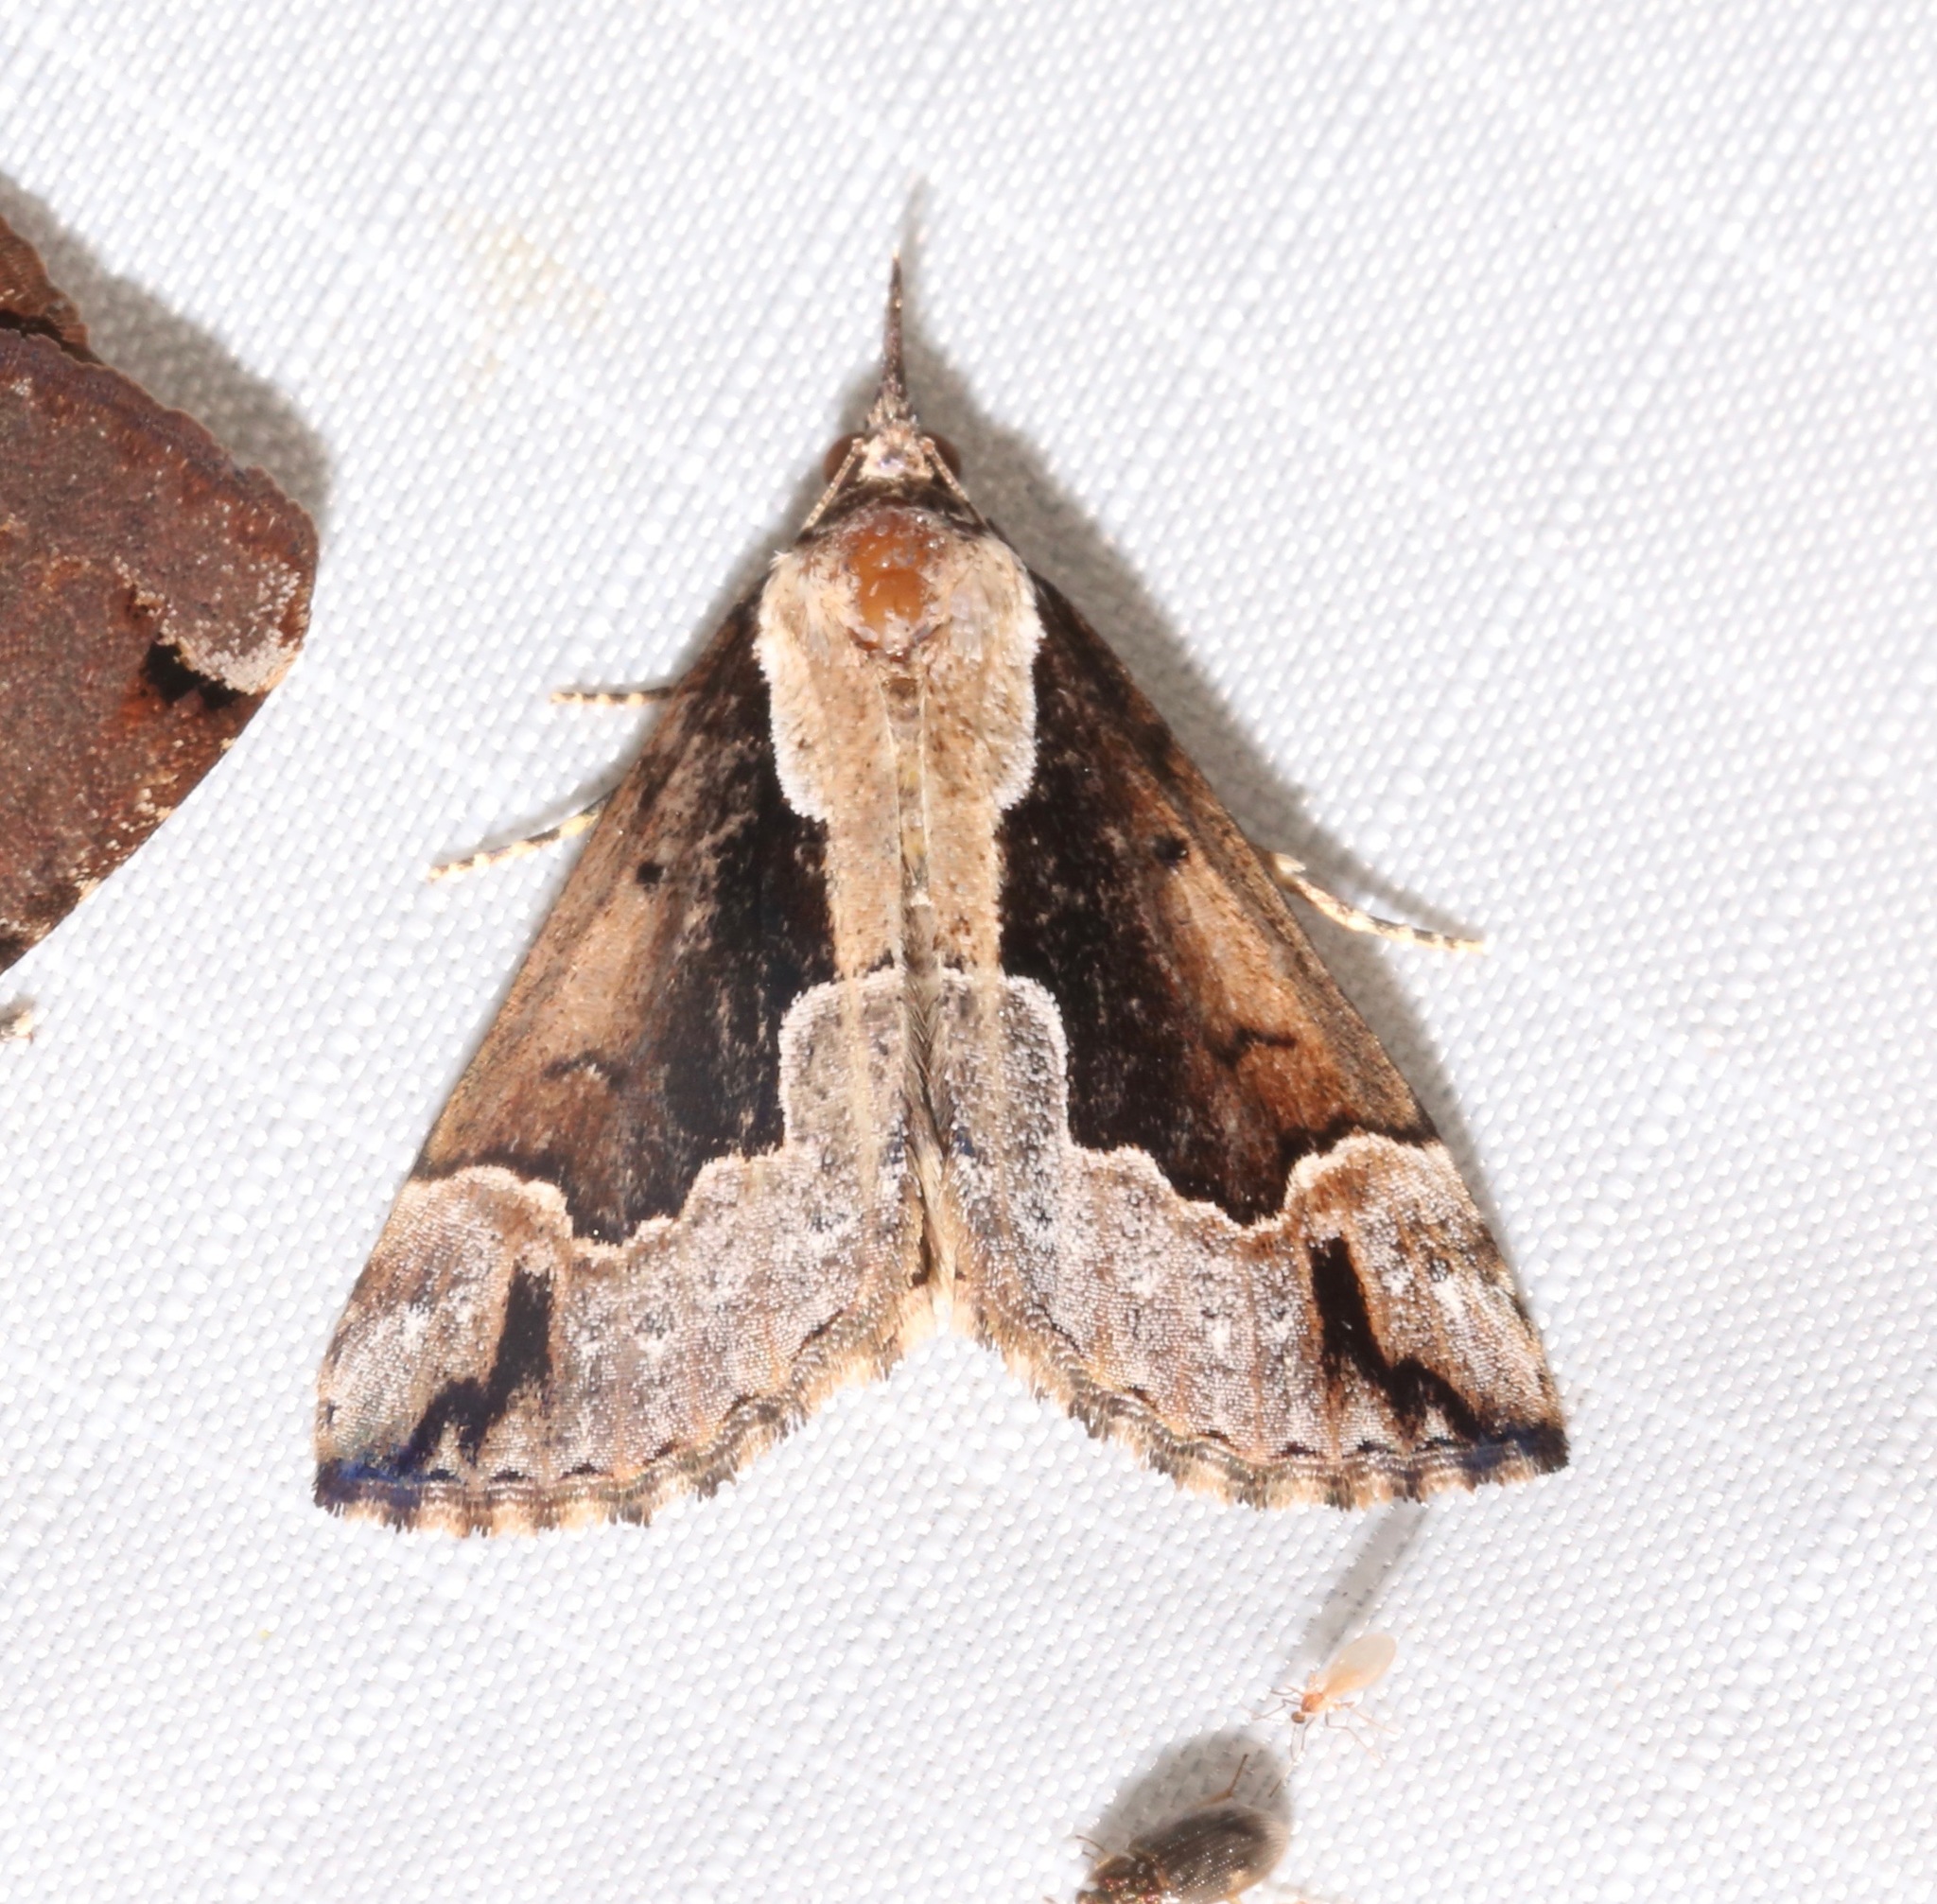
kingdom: Animalia
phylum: Arthropoda
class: Insecta
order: Lepidoptera
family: Erebidae
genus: Hypena
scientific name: Hypena baltimoralis
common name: Baltimore snout
